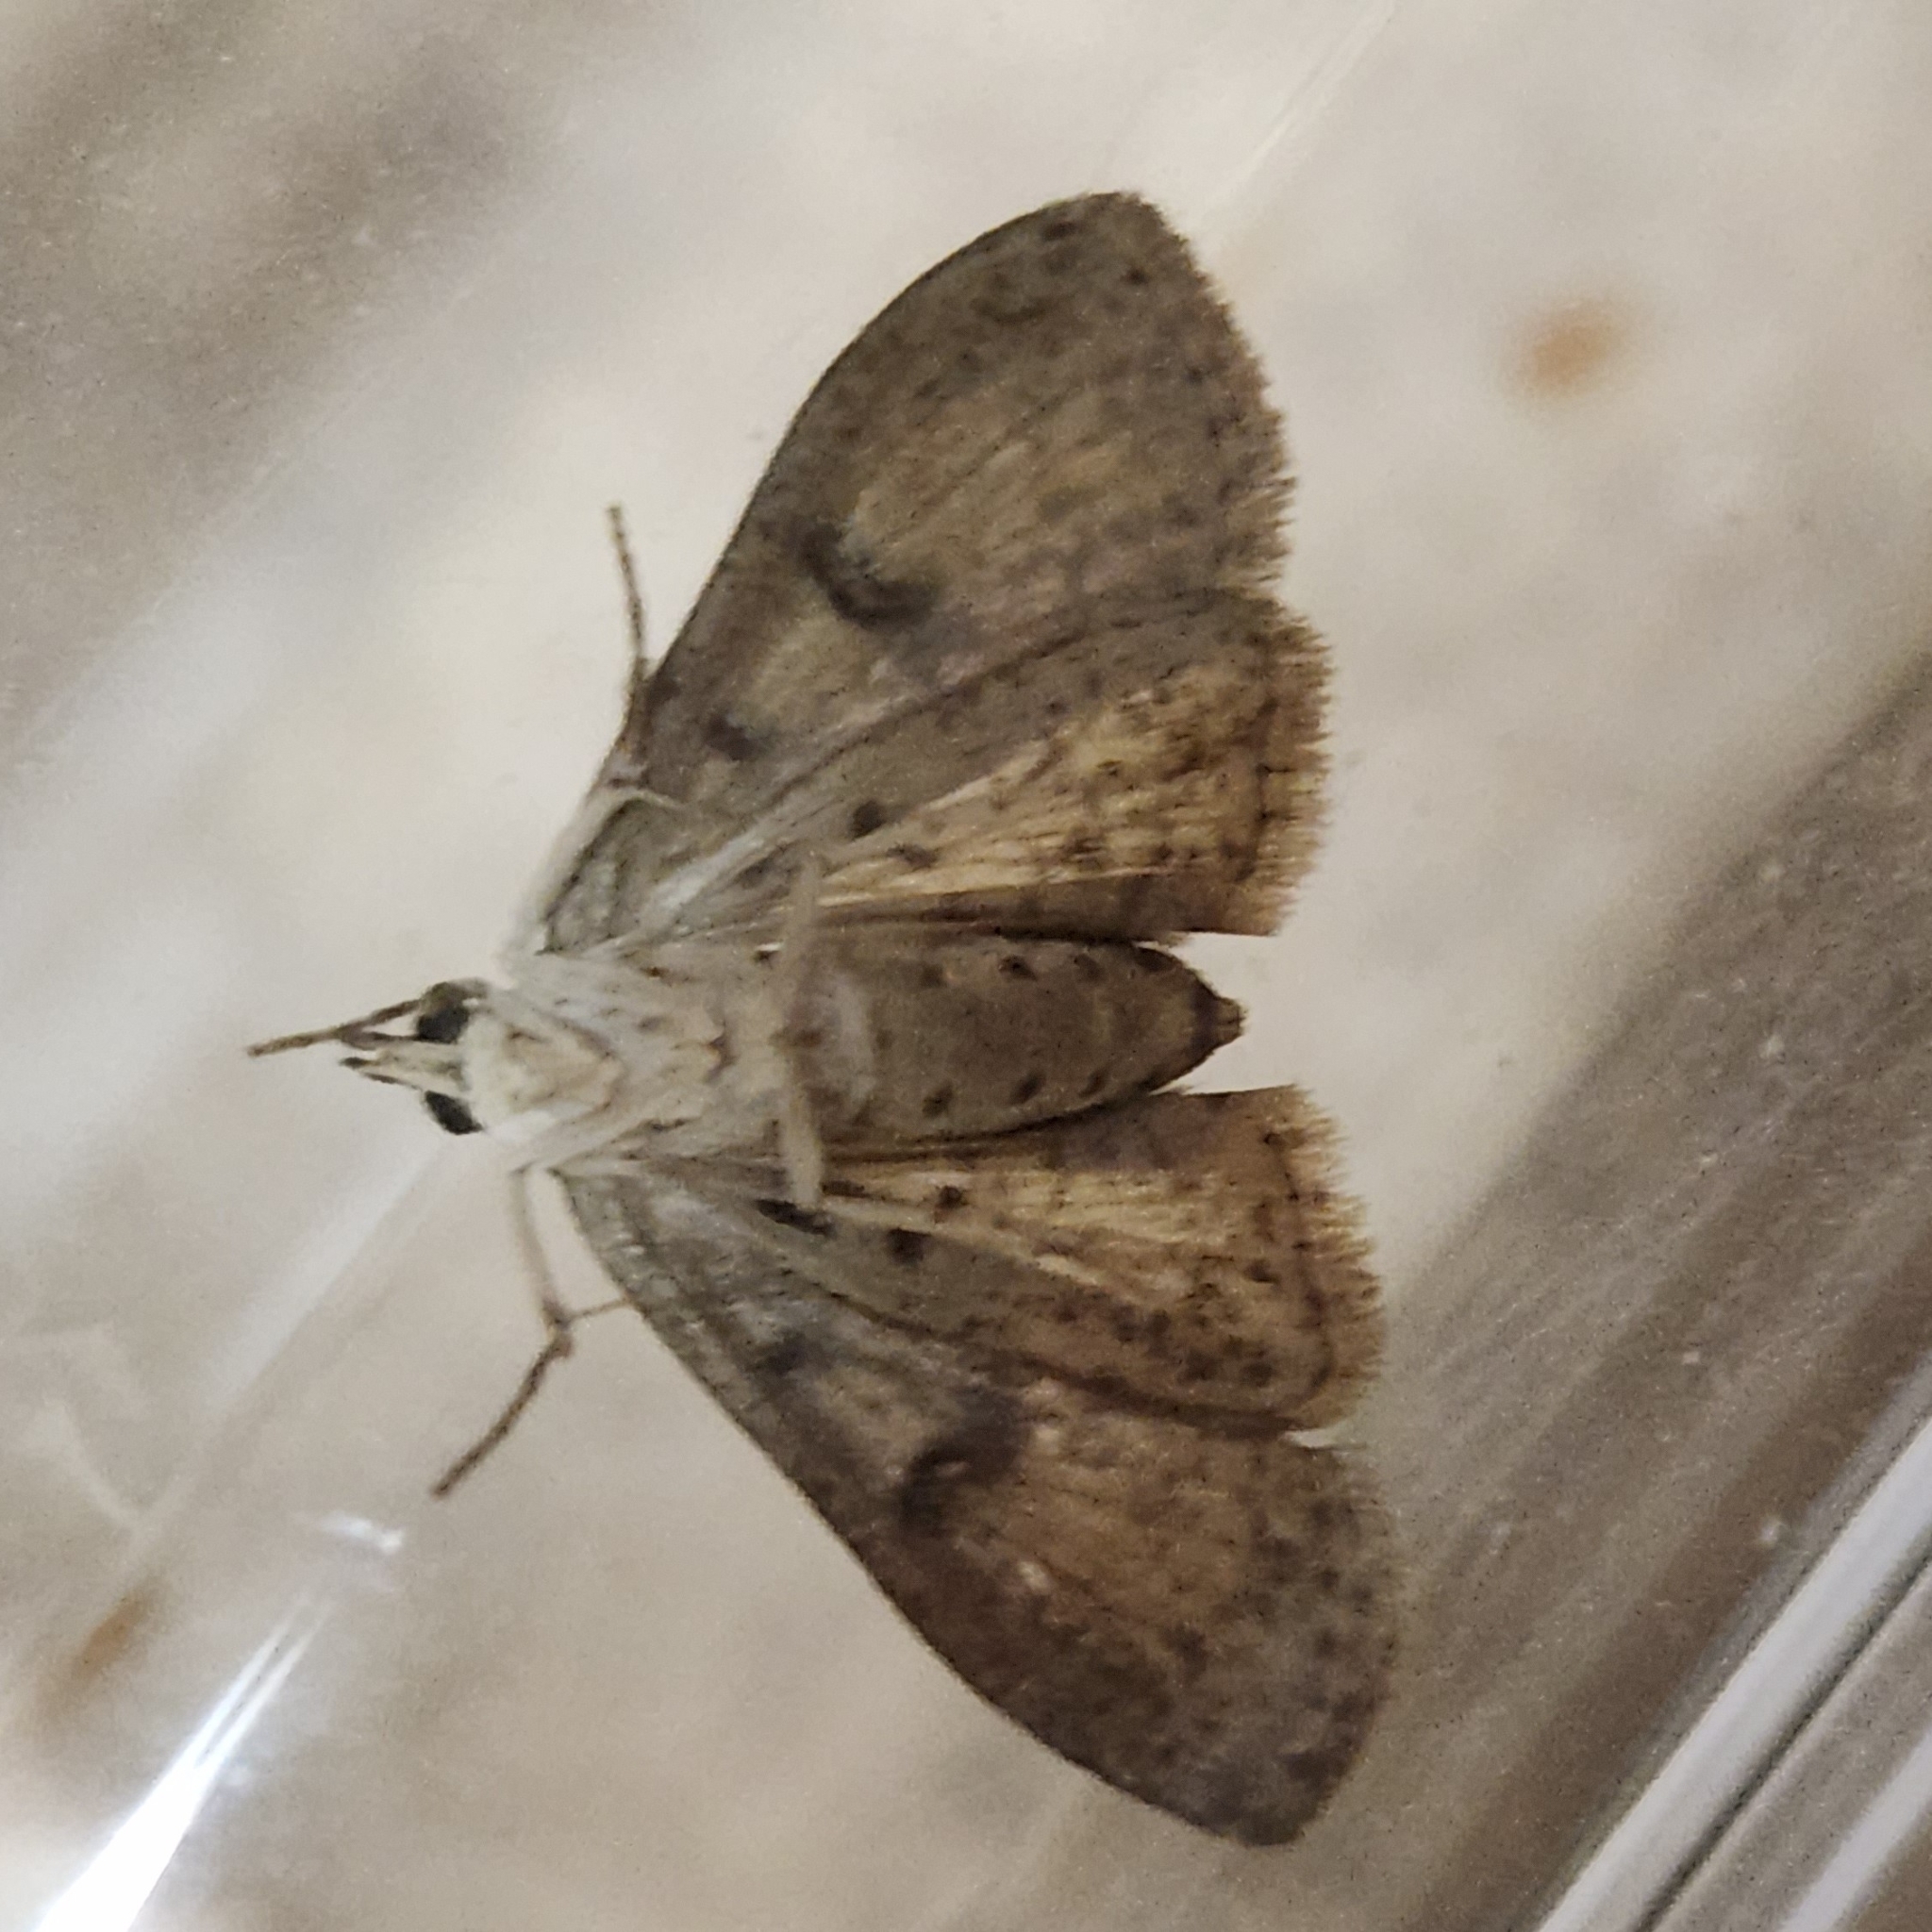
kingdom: Animalia
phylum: Arthropoda
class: Insecta
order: Lepidoptera
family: Crambidae
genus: Palpita
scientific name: Palpita magniferalis
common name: Splendid palpita moth
